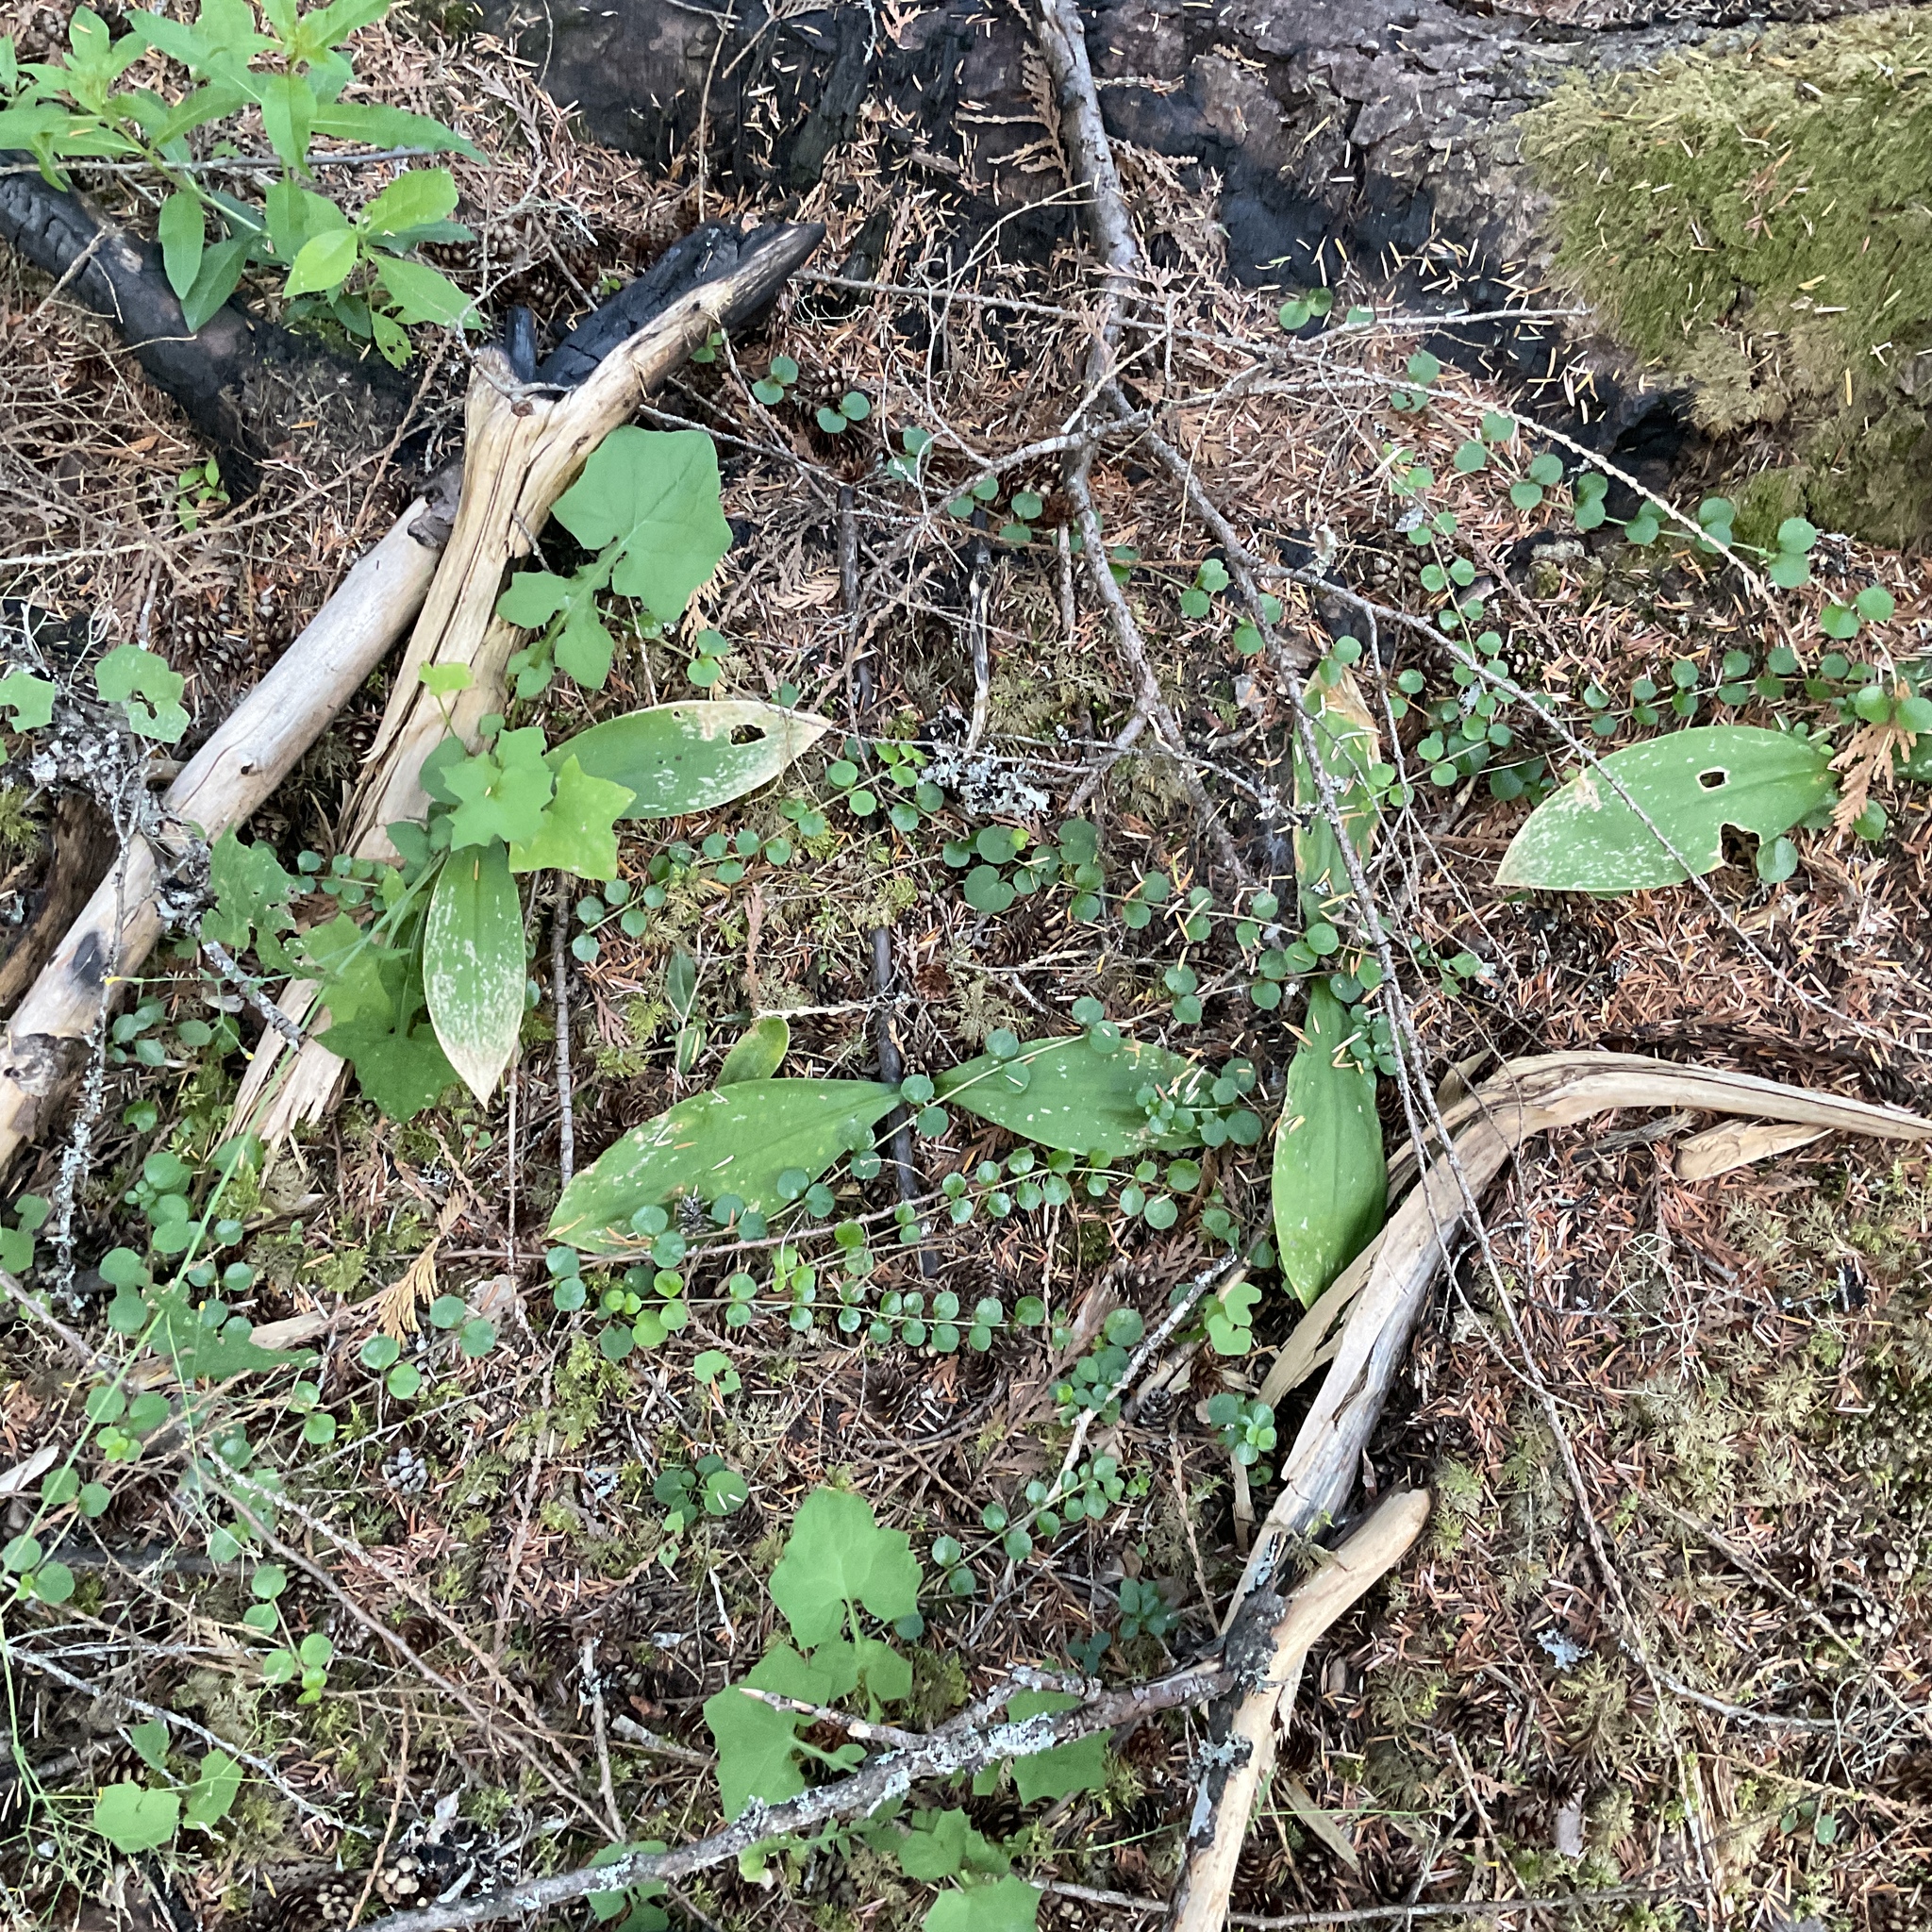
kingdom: Plantae
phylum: Tracheophyta
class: Liliopsida
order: Liliales
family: Liliaceae
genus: Clintonia
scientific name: Clintonia uniflora
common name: Queen's cup
